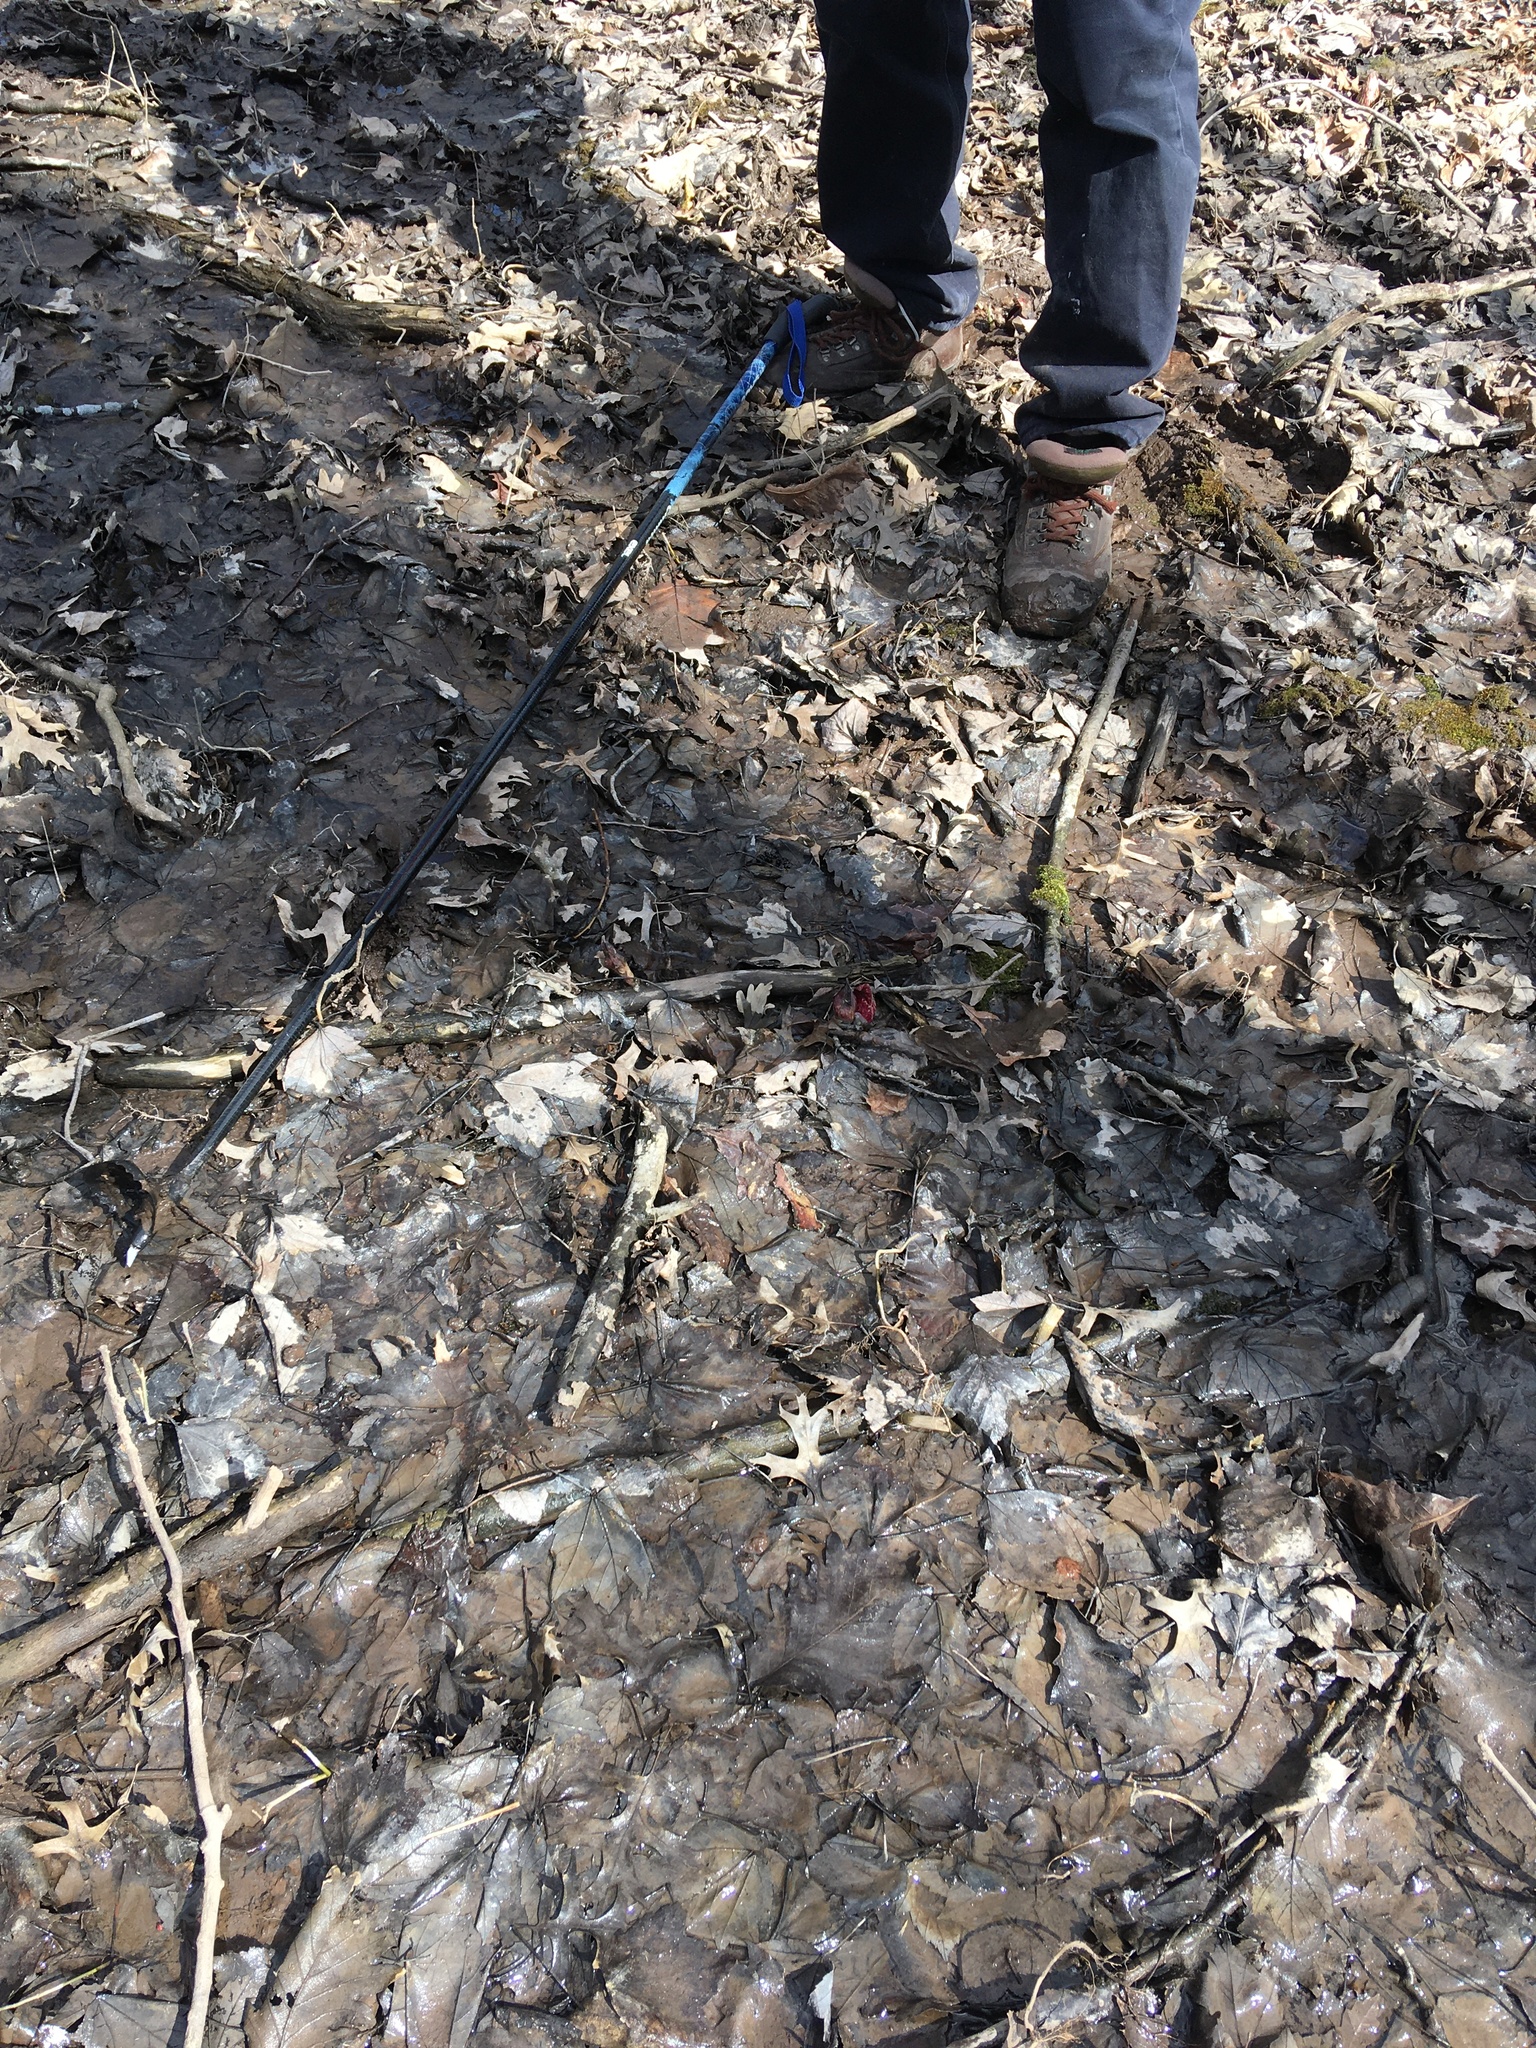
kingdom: Plantae
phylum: Tracheophyta
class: Liliopsida
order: Alismatales
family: Araceae
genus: Symplocarpus
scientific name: Symplocarpus foetidus
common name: Eastern skunk cabbage
